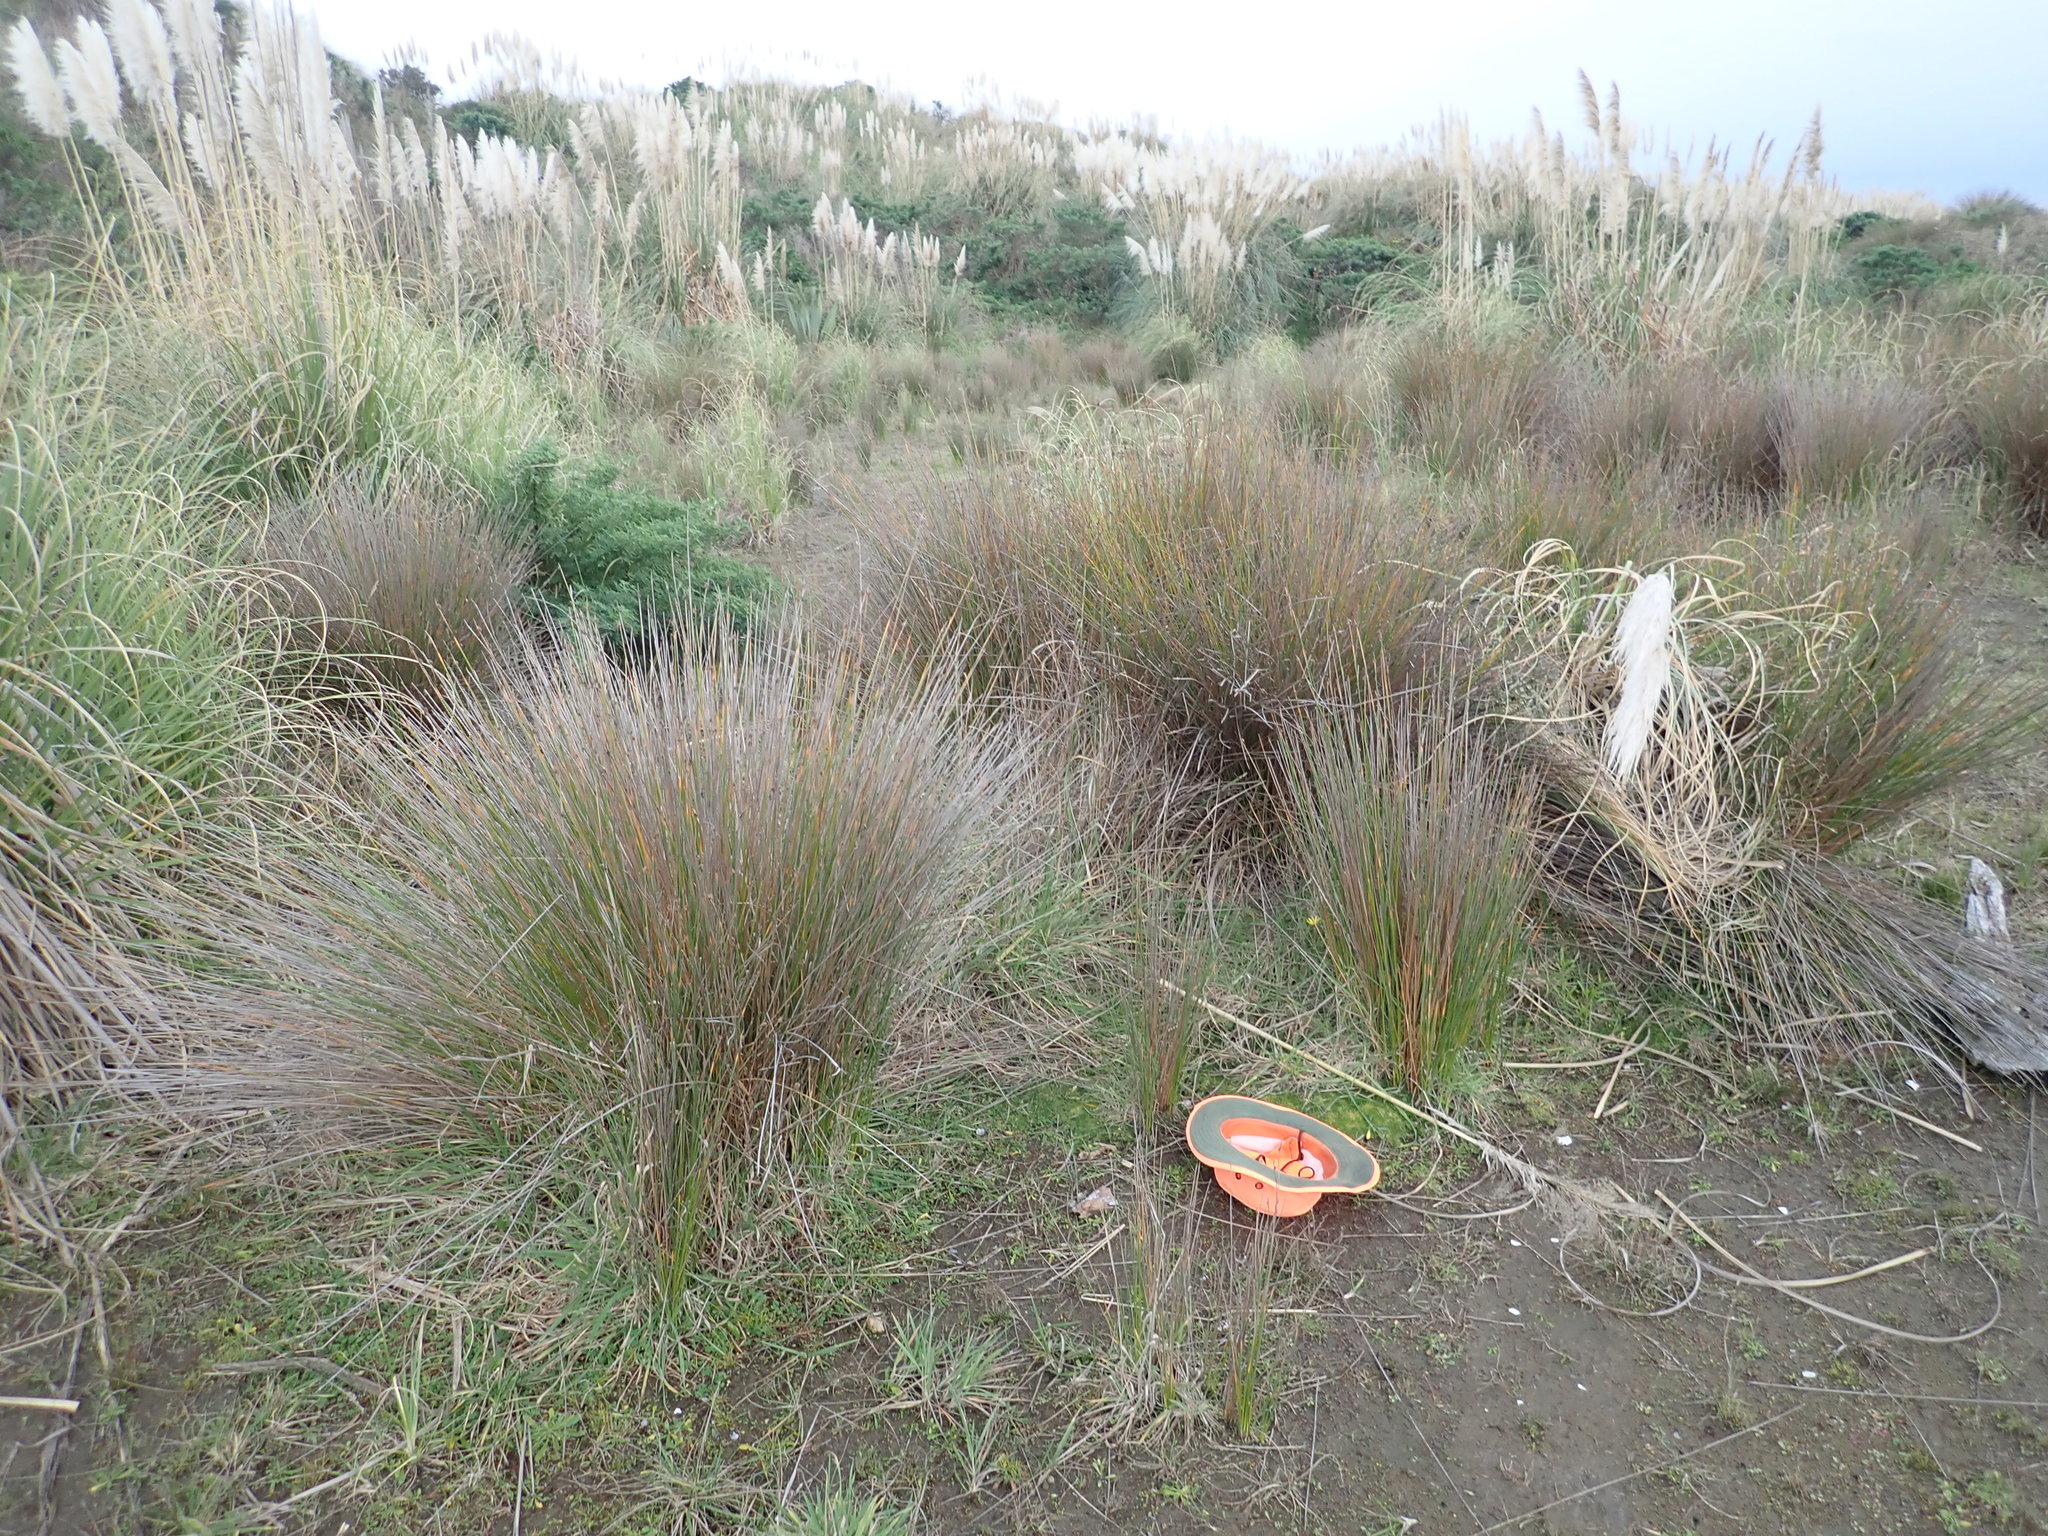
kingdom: Plantae
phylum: Tracheophyta
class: Magnoliopsida
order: Caryophyllales
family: Caryophyllaceae
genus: Sagina
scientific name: Sagina procumbens
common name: Procumbent pearlwort
